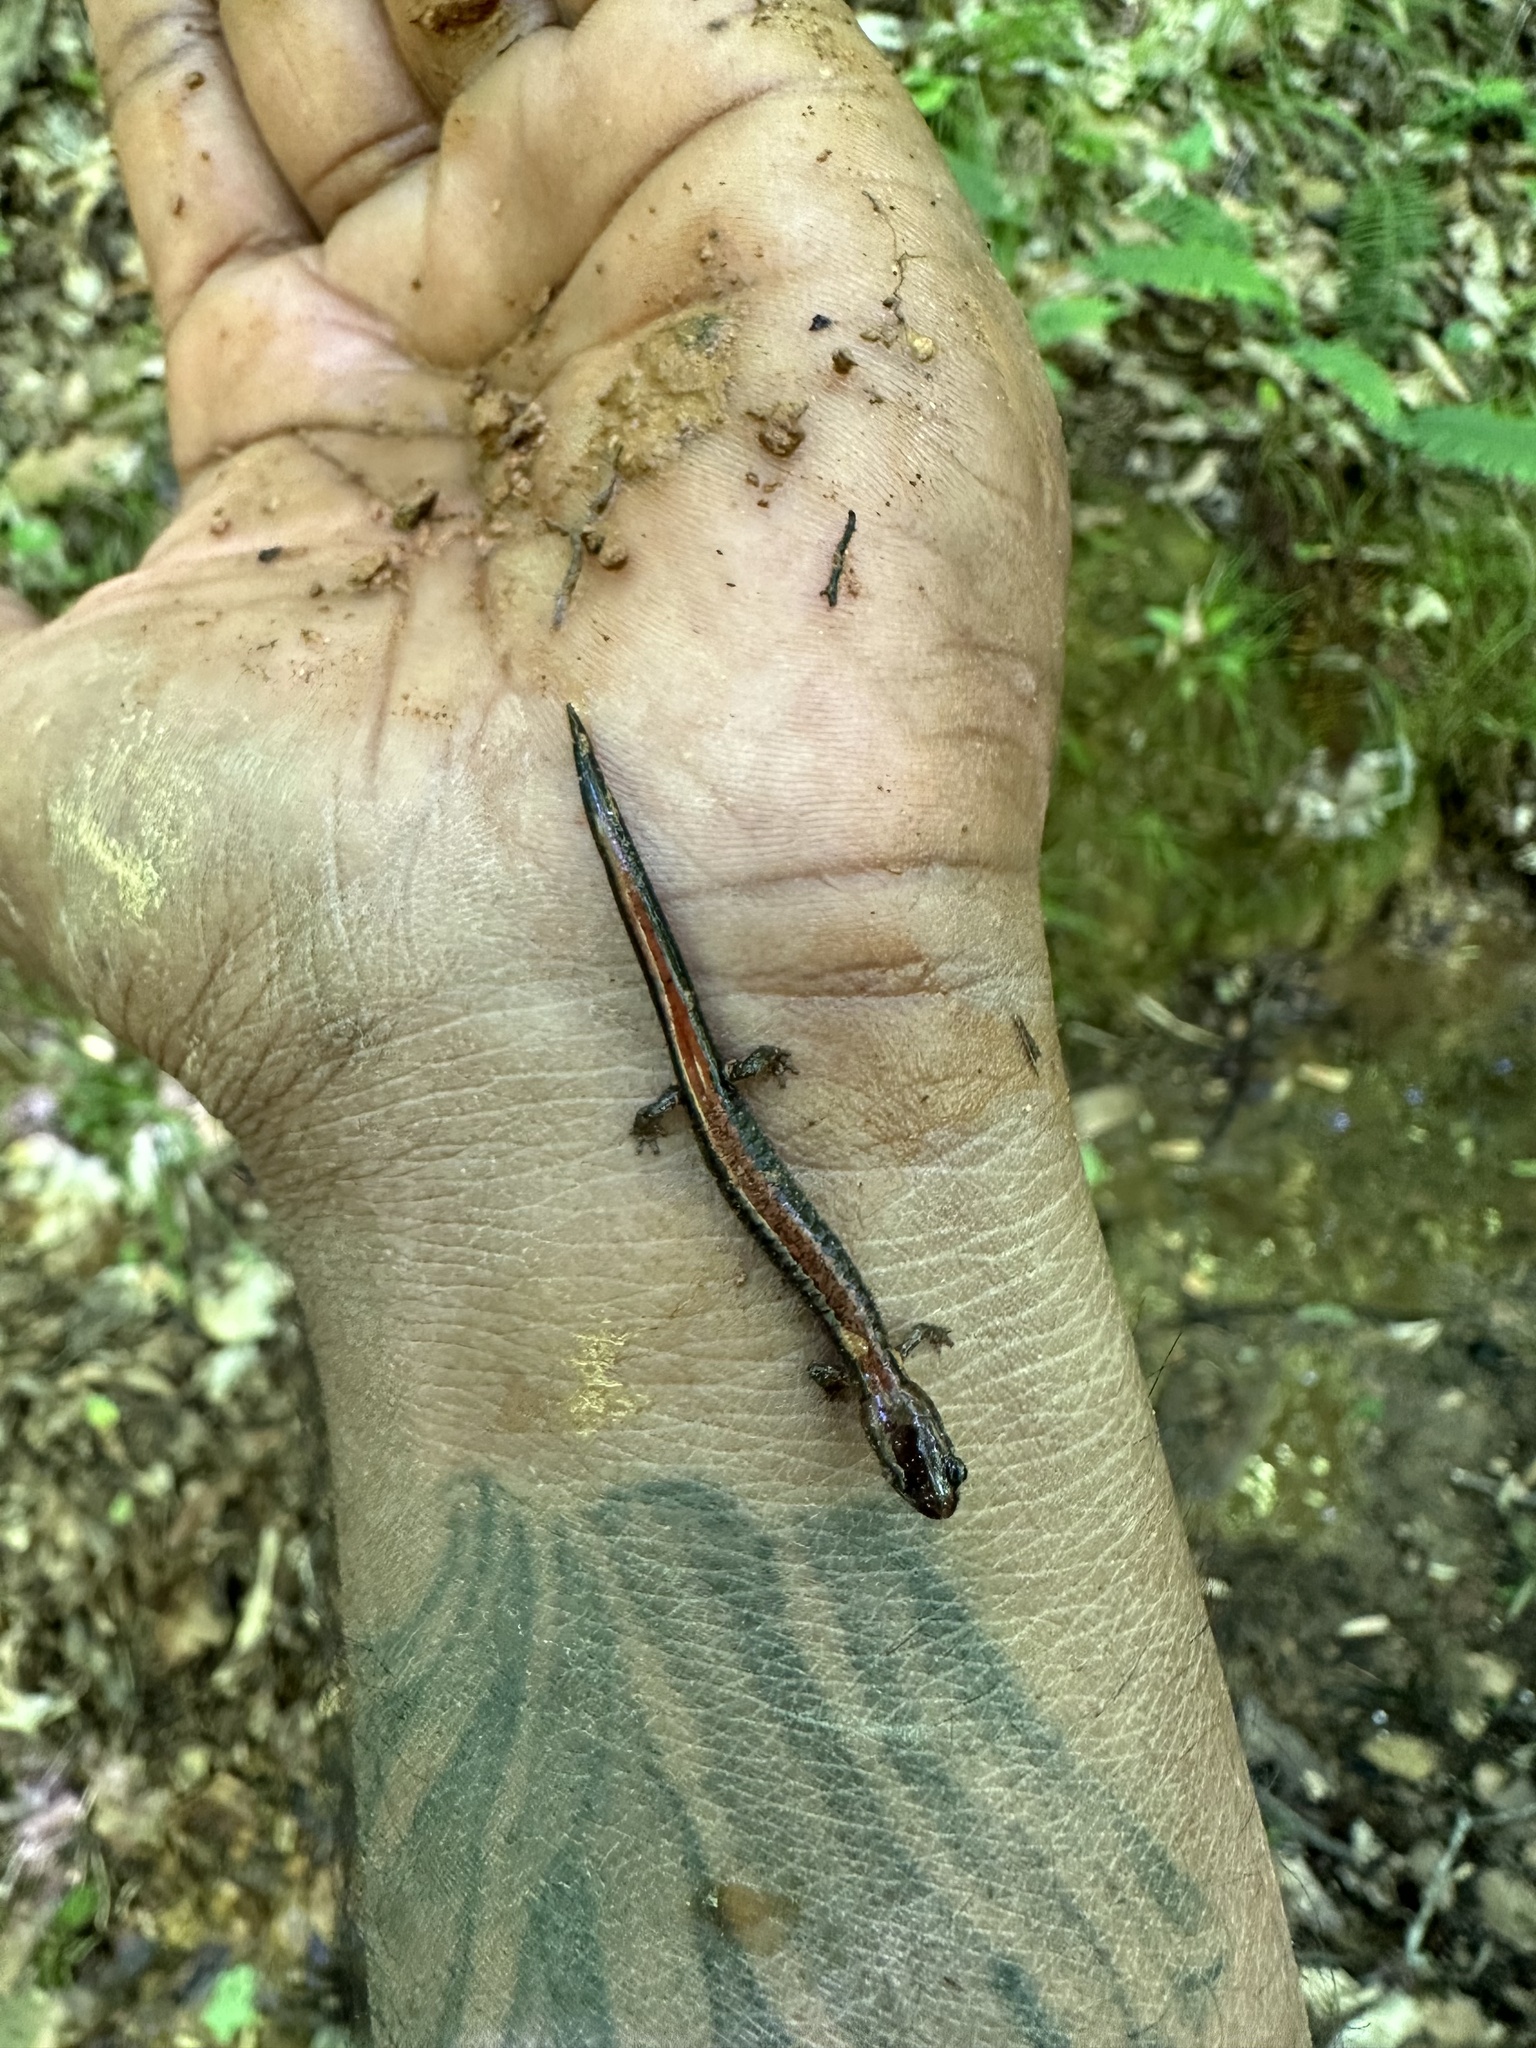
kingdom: Animalia
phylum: Chordata
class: Amphibia
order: Caudata
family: Plethodontidae
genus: Plethodon
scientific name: Plethodon cinereus
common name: Redback salamander
